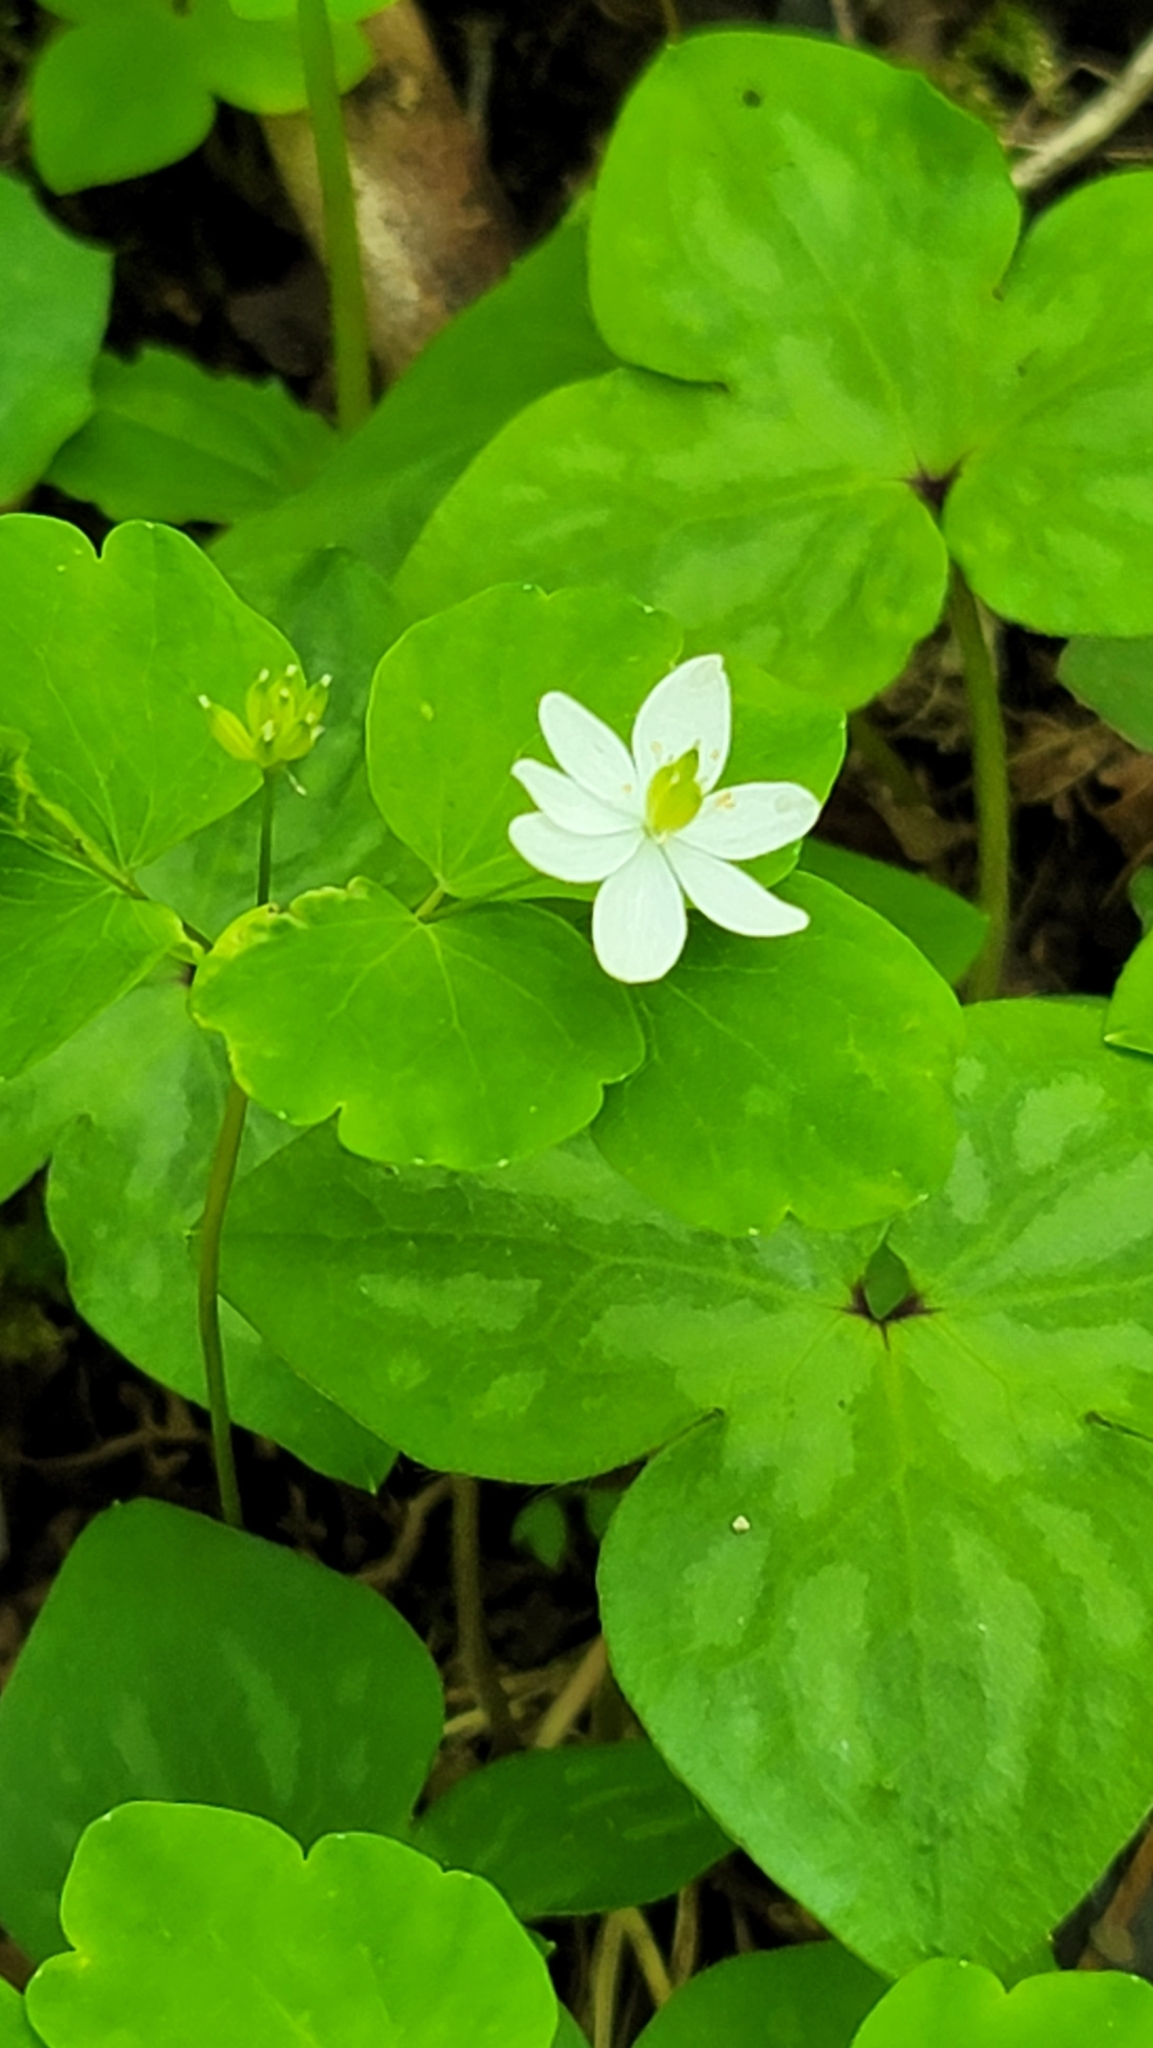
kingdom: Plantae
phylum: Tracheophyta
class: Magnoliopsida
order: Ranunculales
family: Ranunculaceae
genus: Thalictrum
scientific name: Thalictrum thalictroides
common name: Rue-anemone
